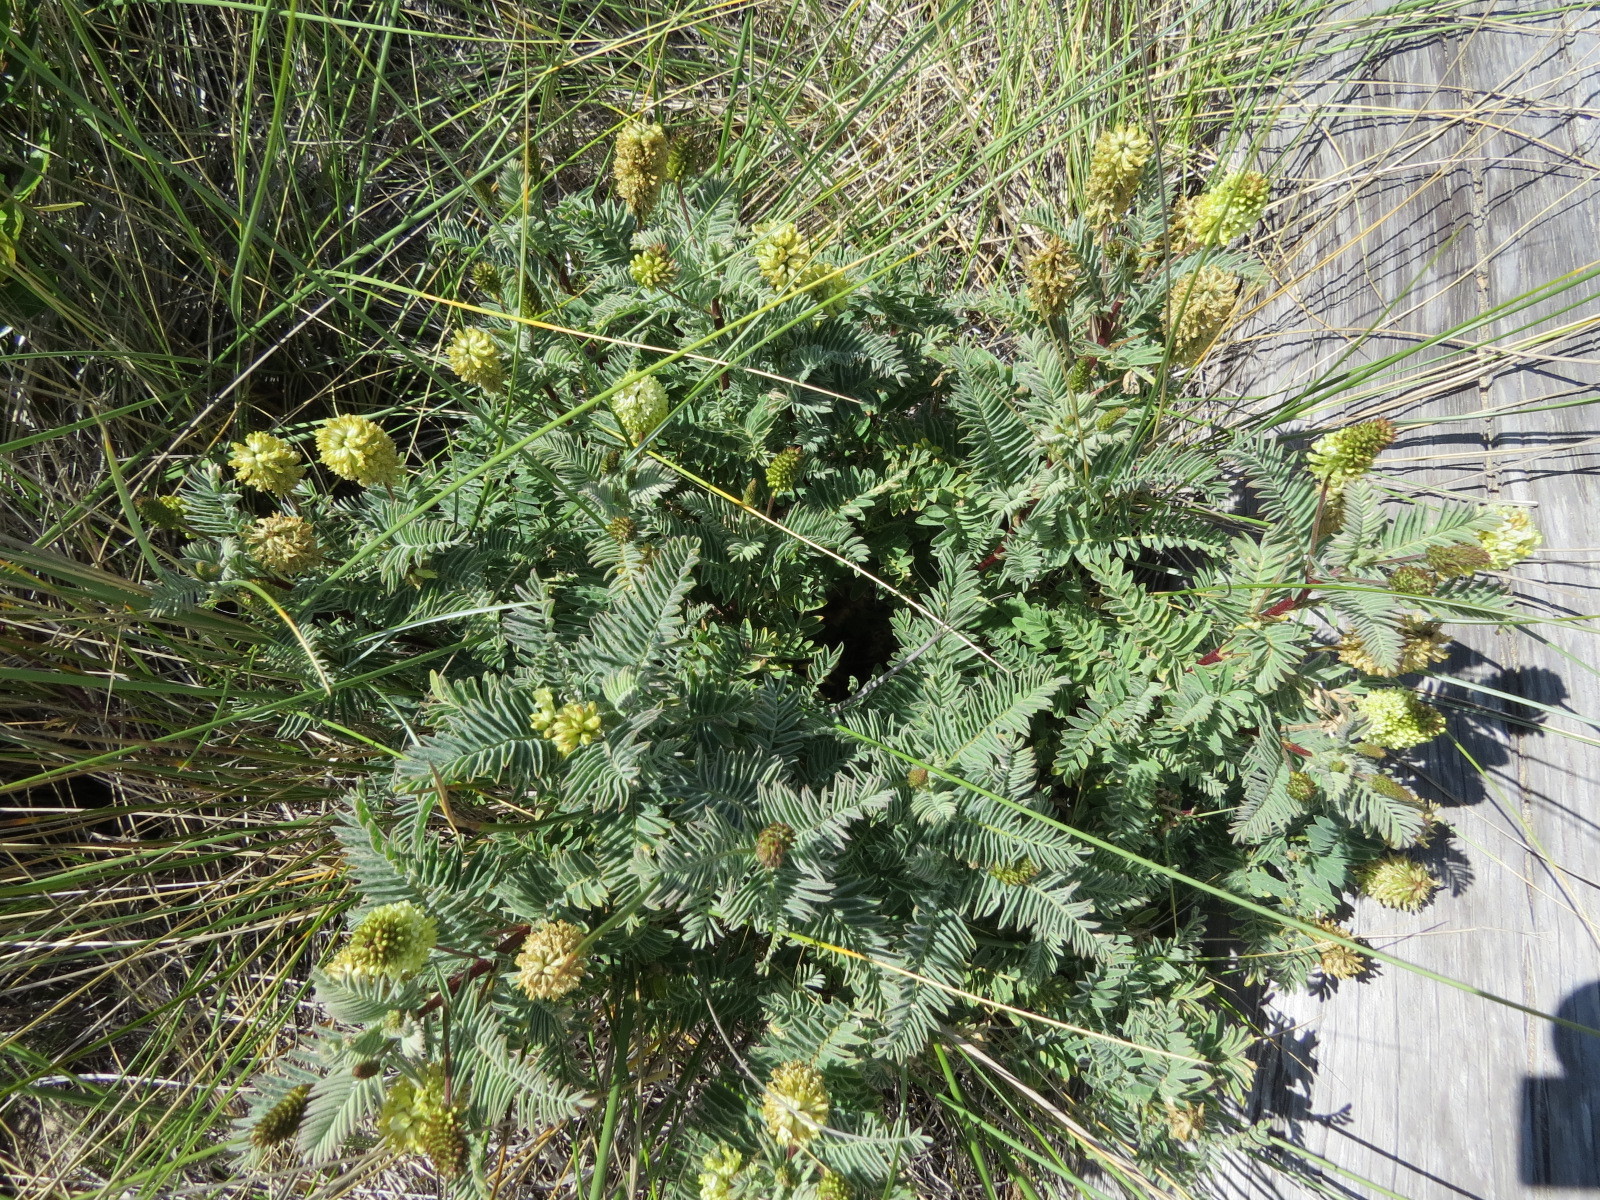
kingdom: Plantae
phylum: Tracheophyta
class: Magnoliopsida
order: Fabales
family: Fabaceae
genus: Astragalus
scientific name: Astragalus pycnostachyus
